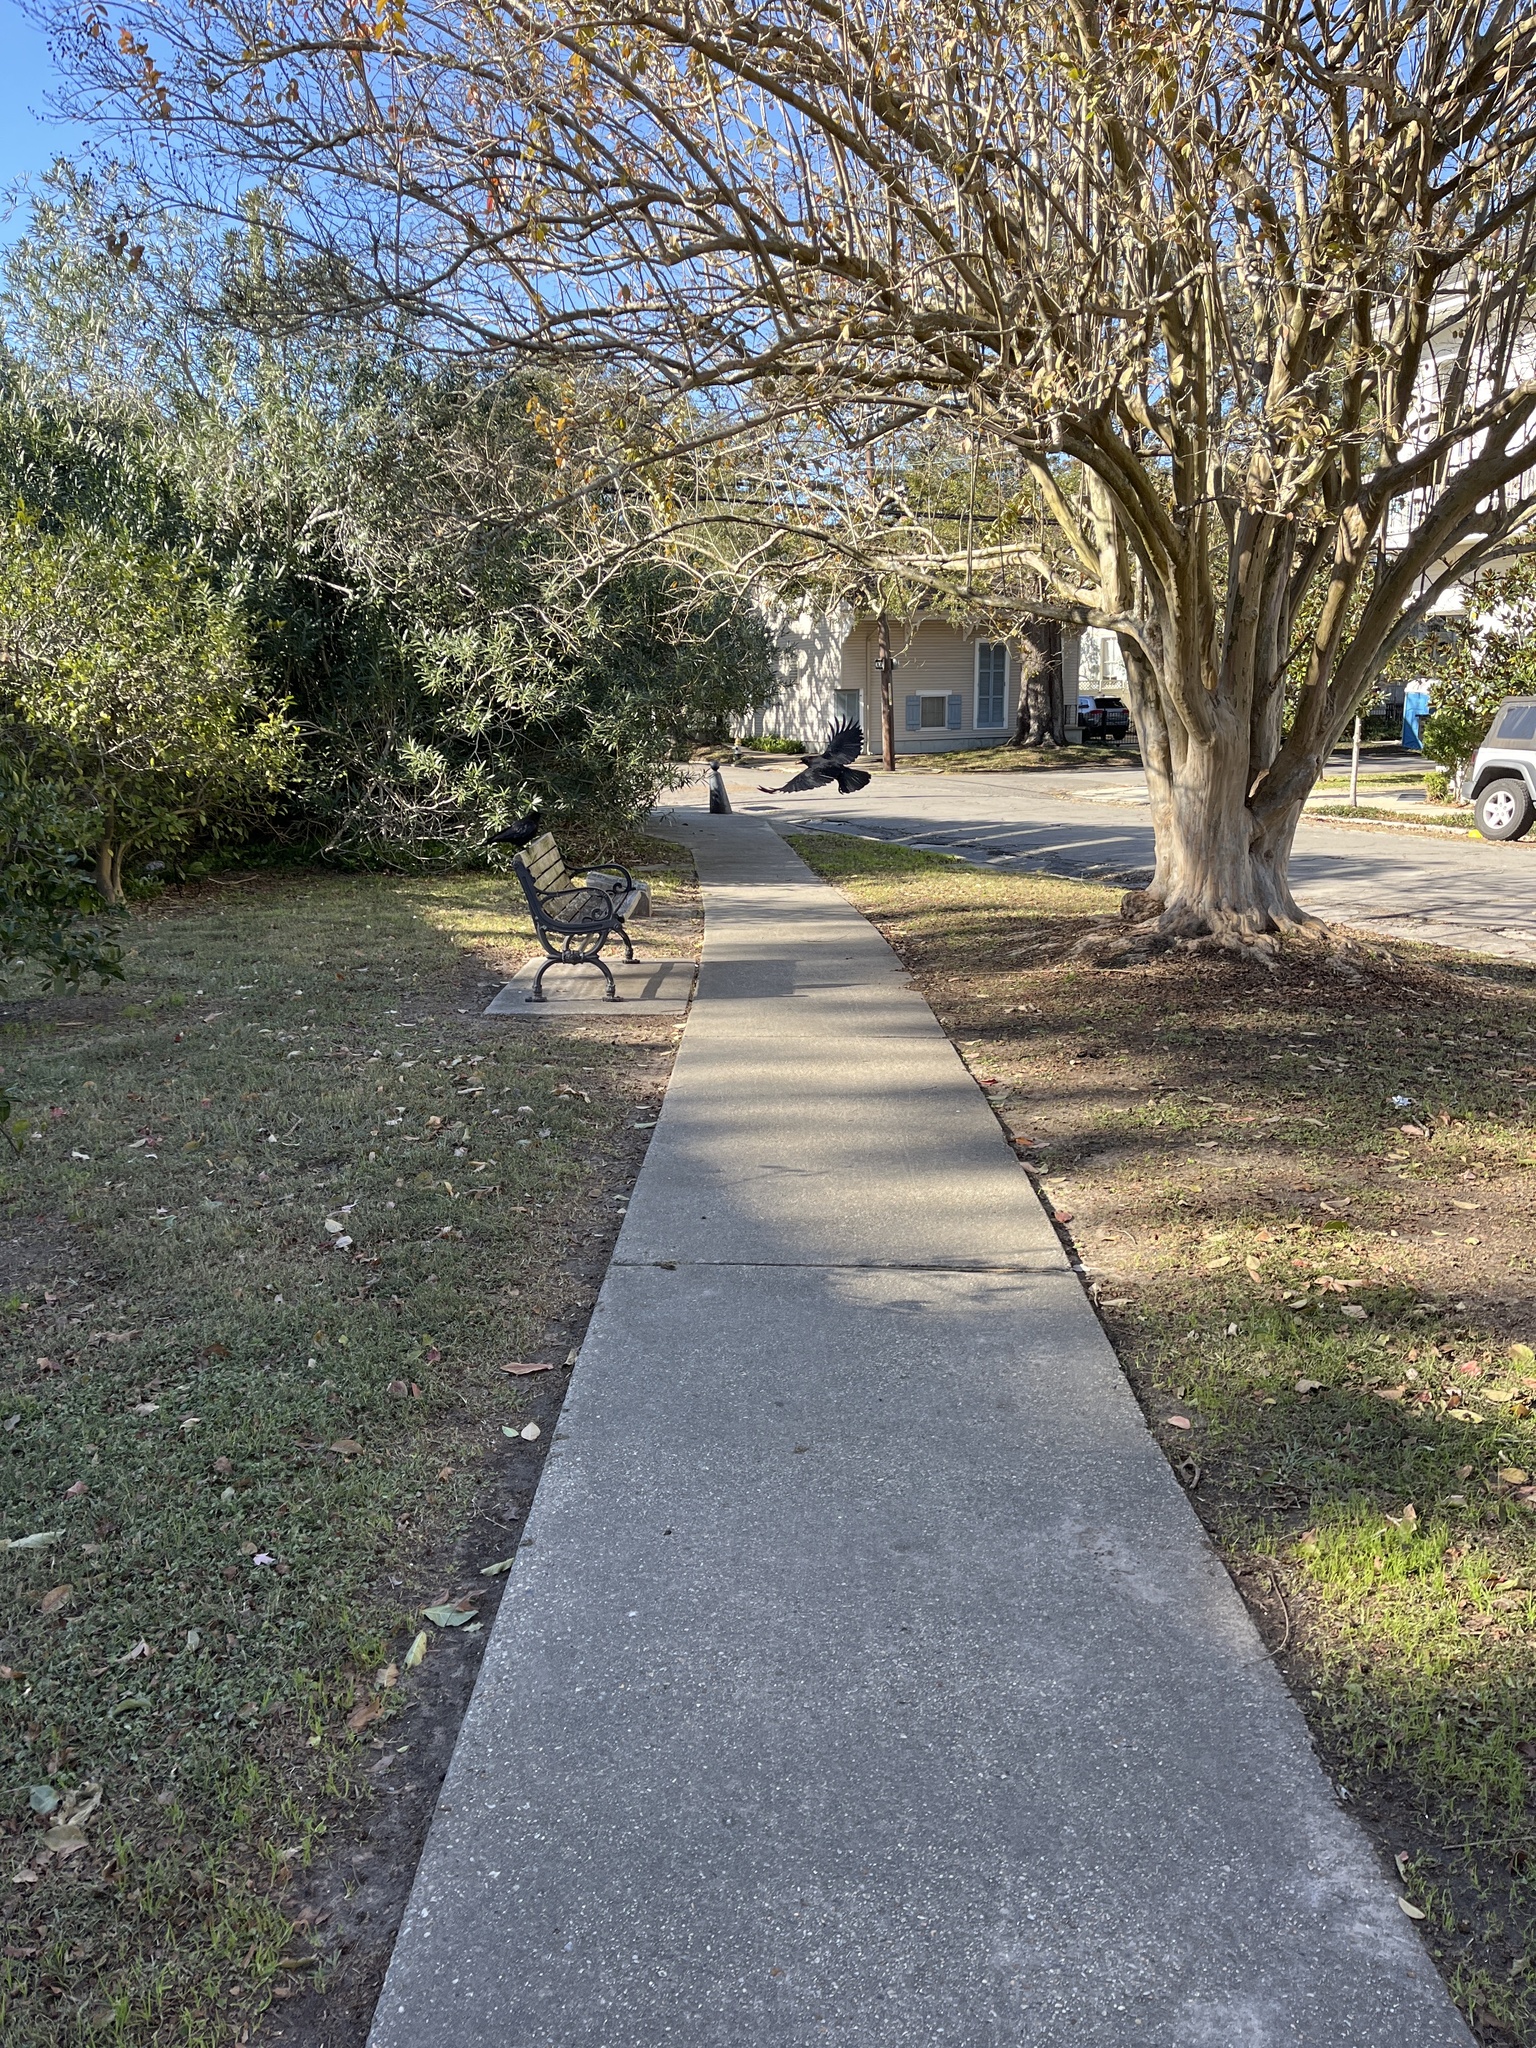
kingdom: Animalia
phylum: Chordata
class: Aves
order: Passeriformes
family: Corvidae
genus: Corvus
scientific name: Corvus brachyrhynchos
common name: American crow
